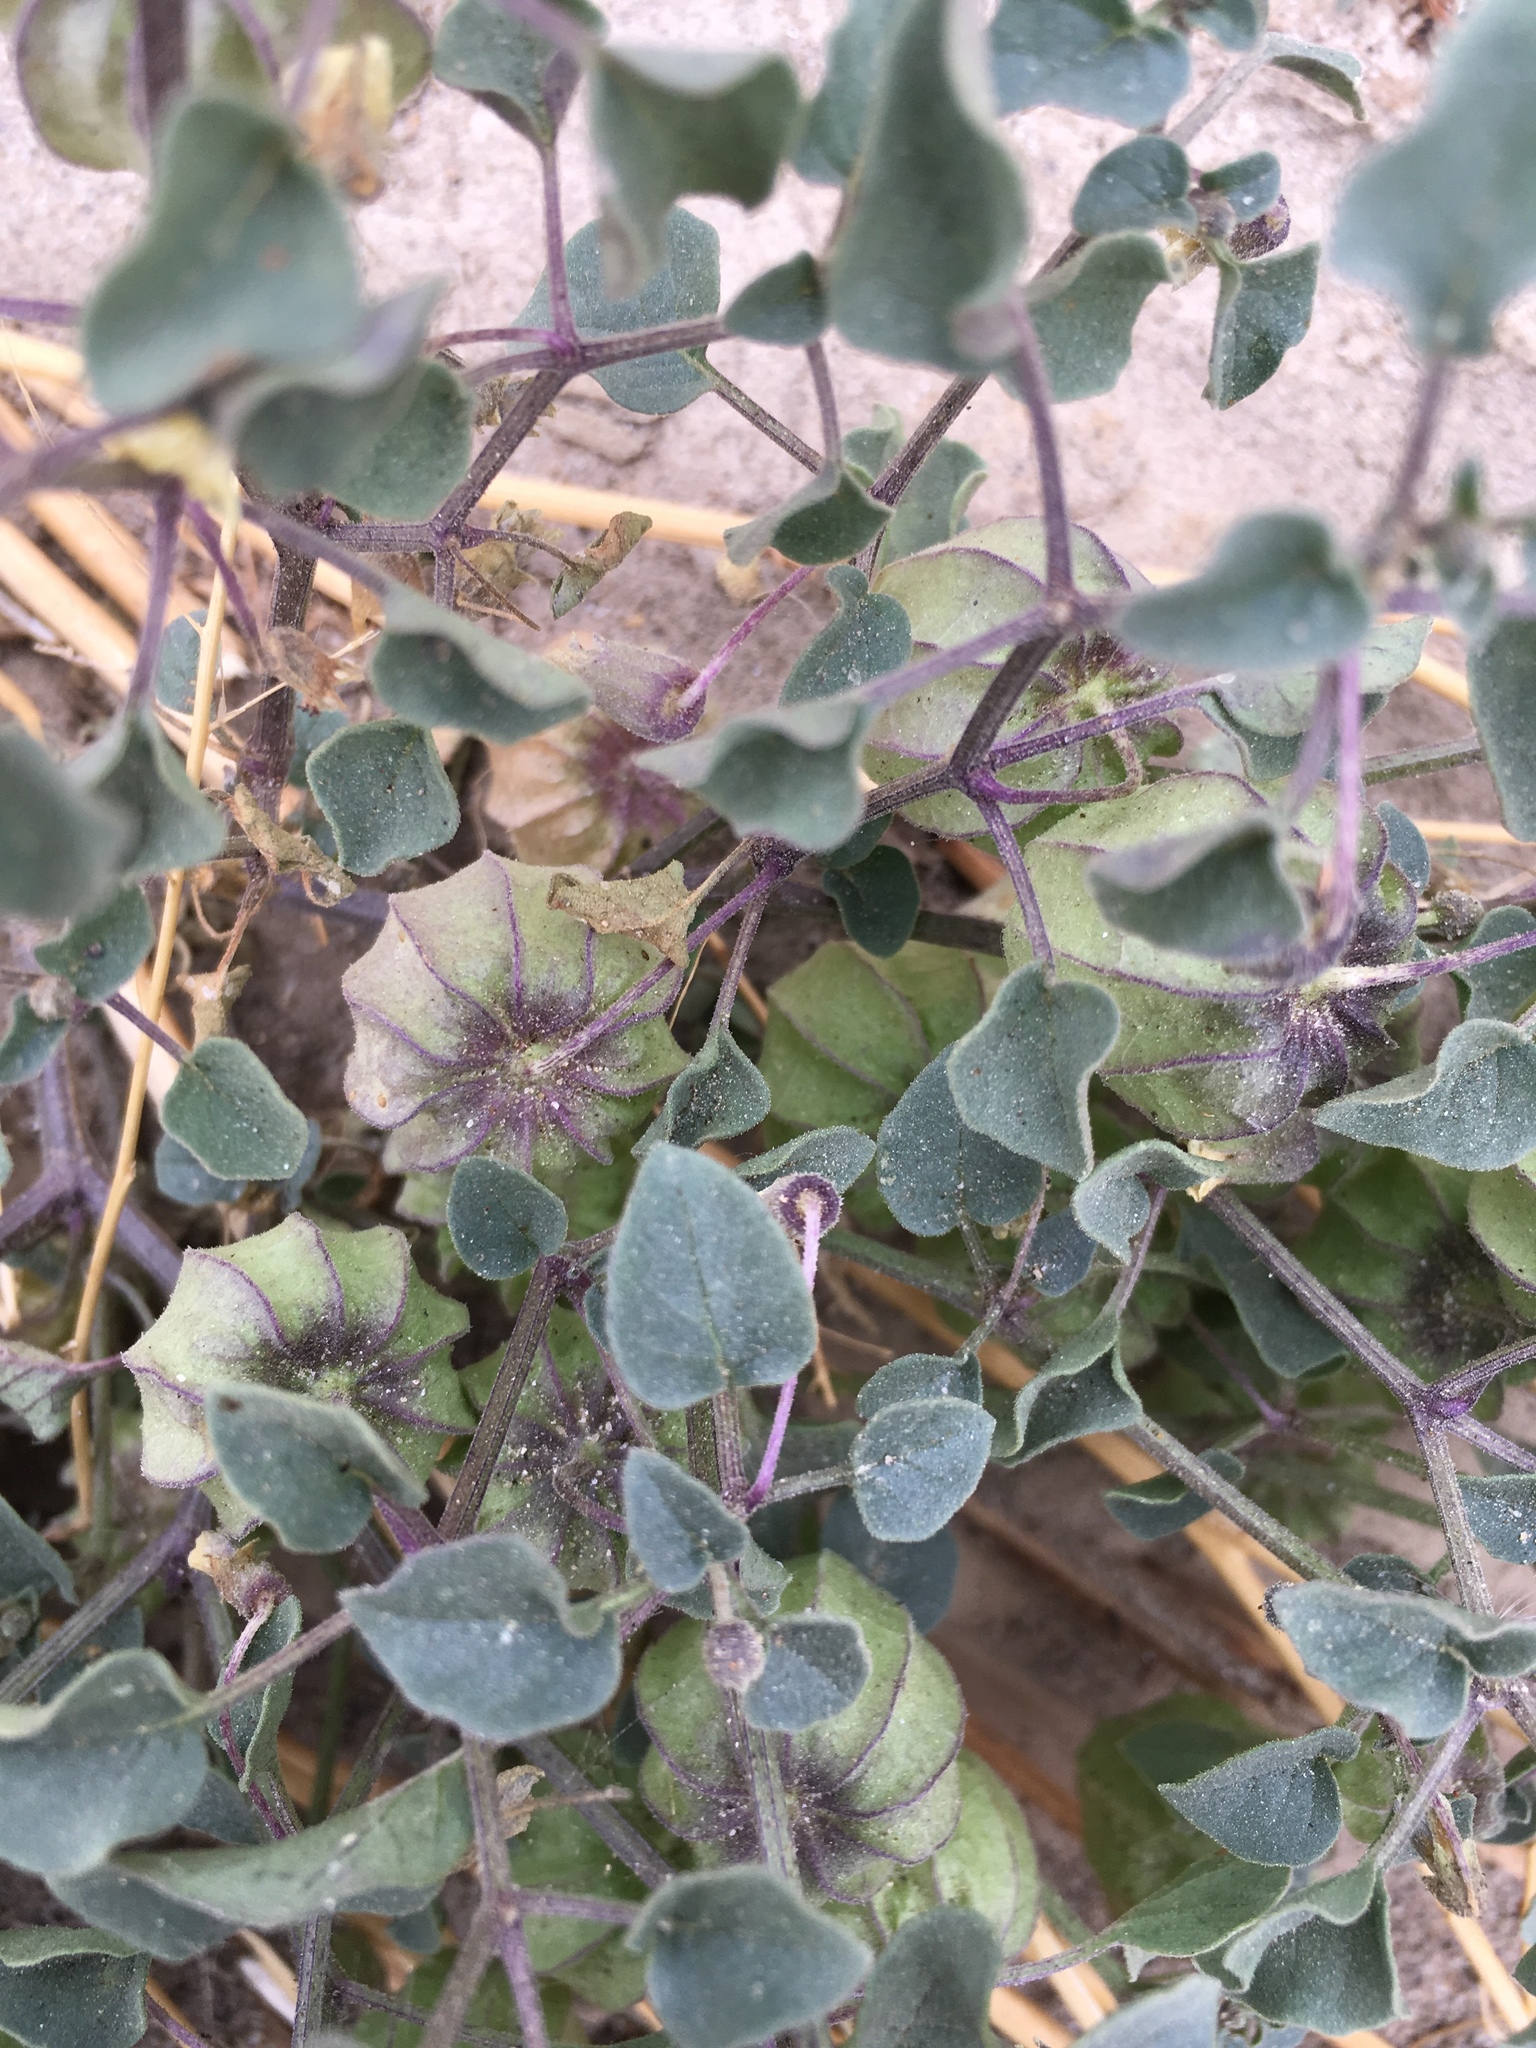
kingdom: Plantae
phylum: Tracheophyta
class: Magnoliopsida
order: Solanales
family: Solanaceae
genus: Physalis
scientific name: Physalis crassifolia
